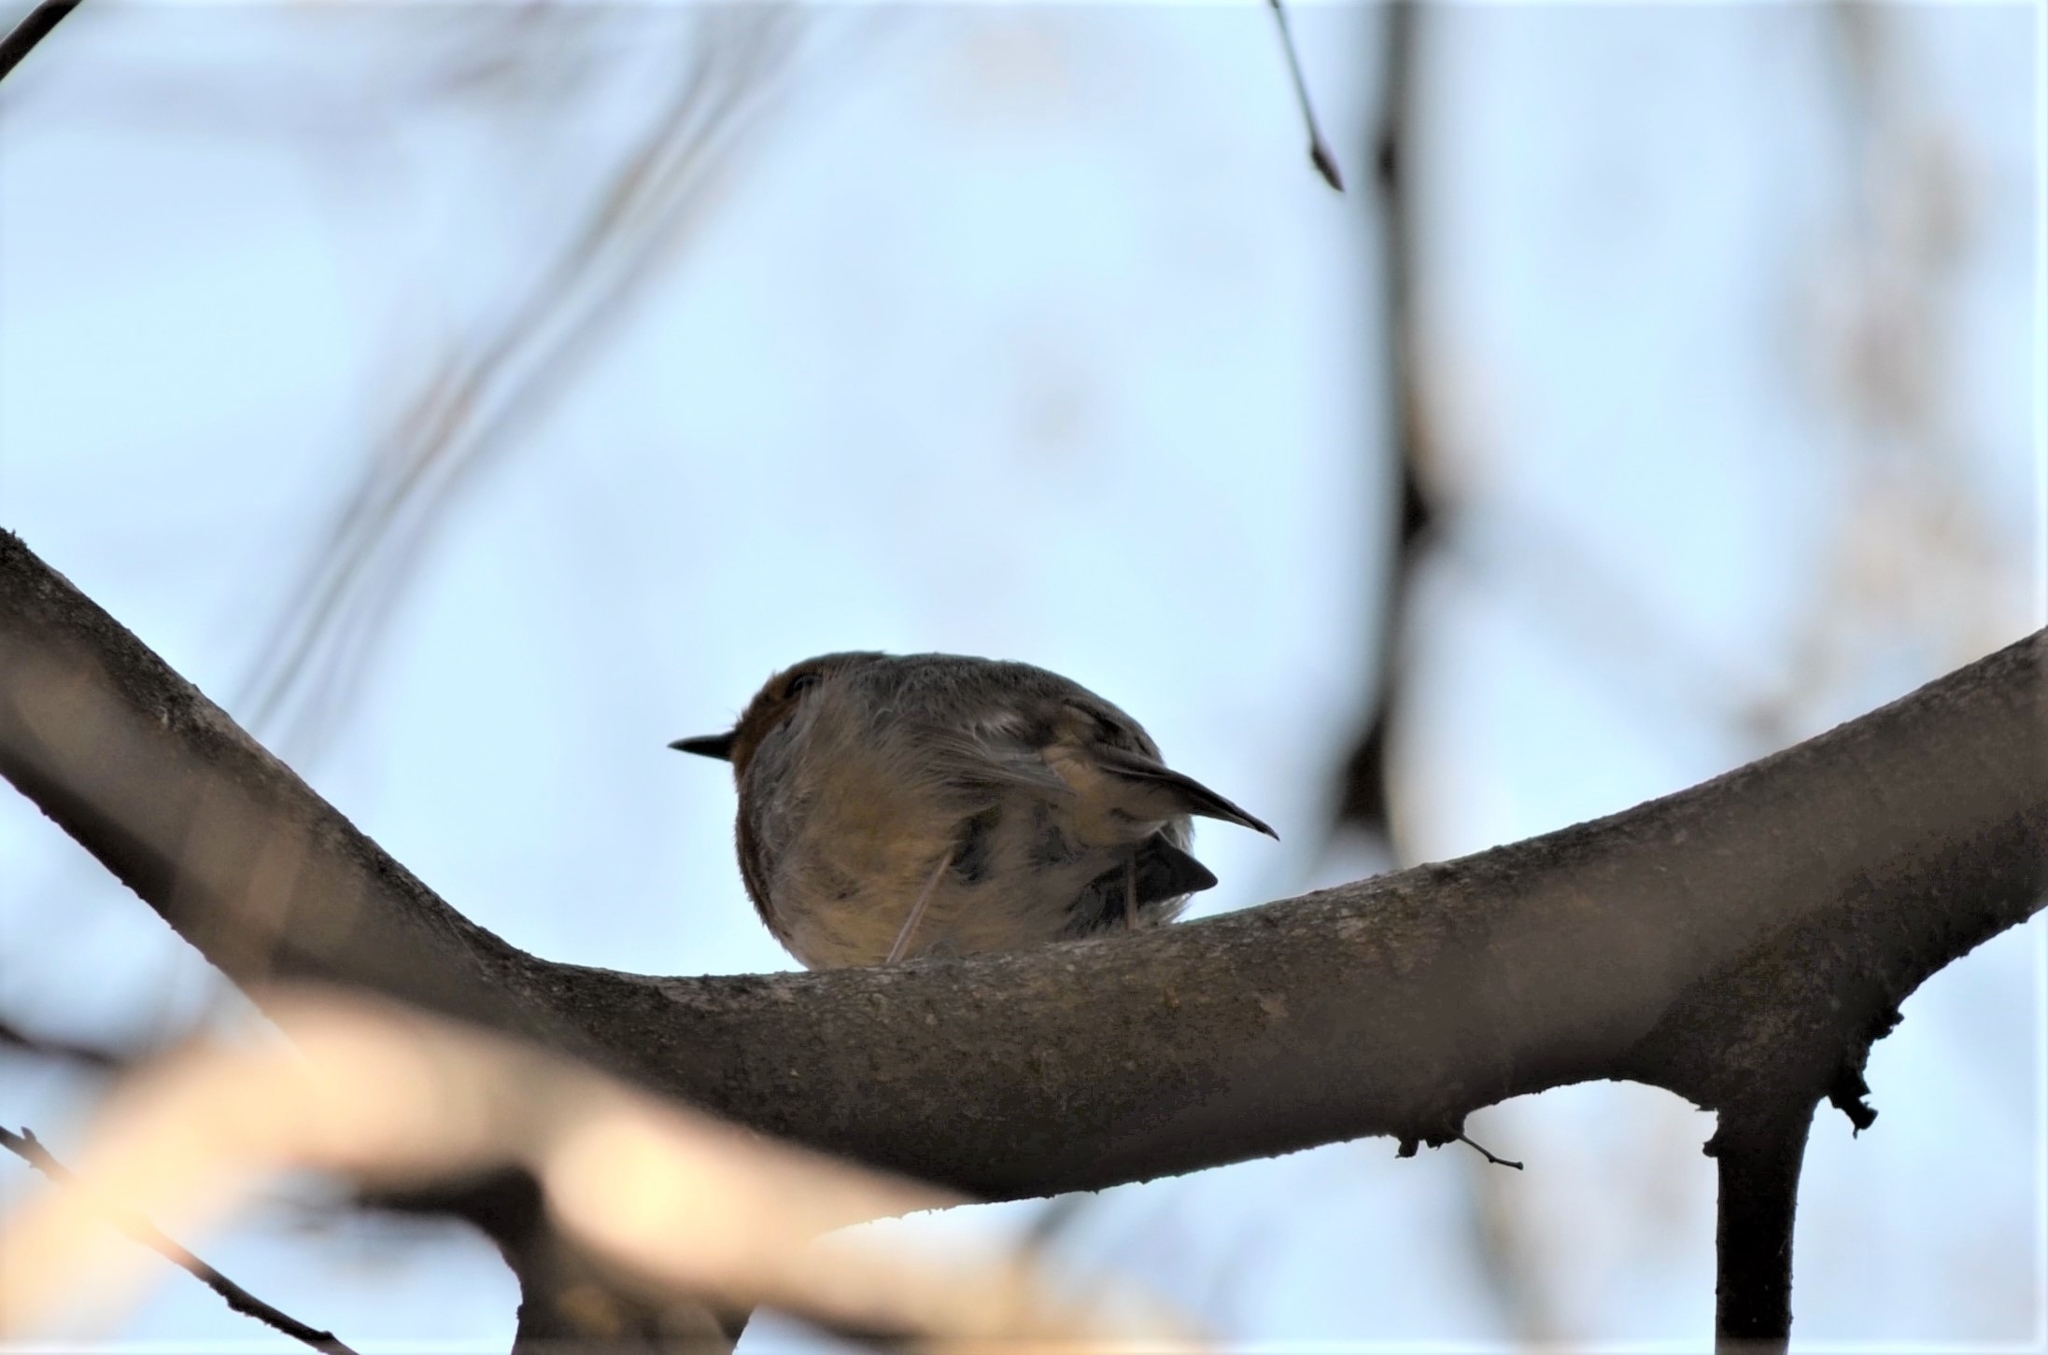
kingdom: Animalia
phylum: Chordata
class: Aves
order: Passeriformes
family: Muscicapidae
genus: Erithacus
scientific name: Erithacus rubecula
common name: European robin
